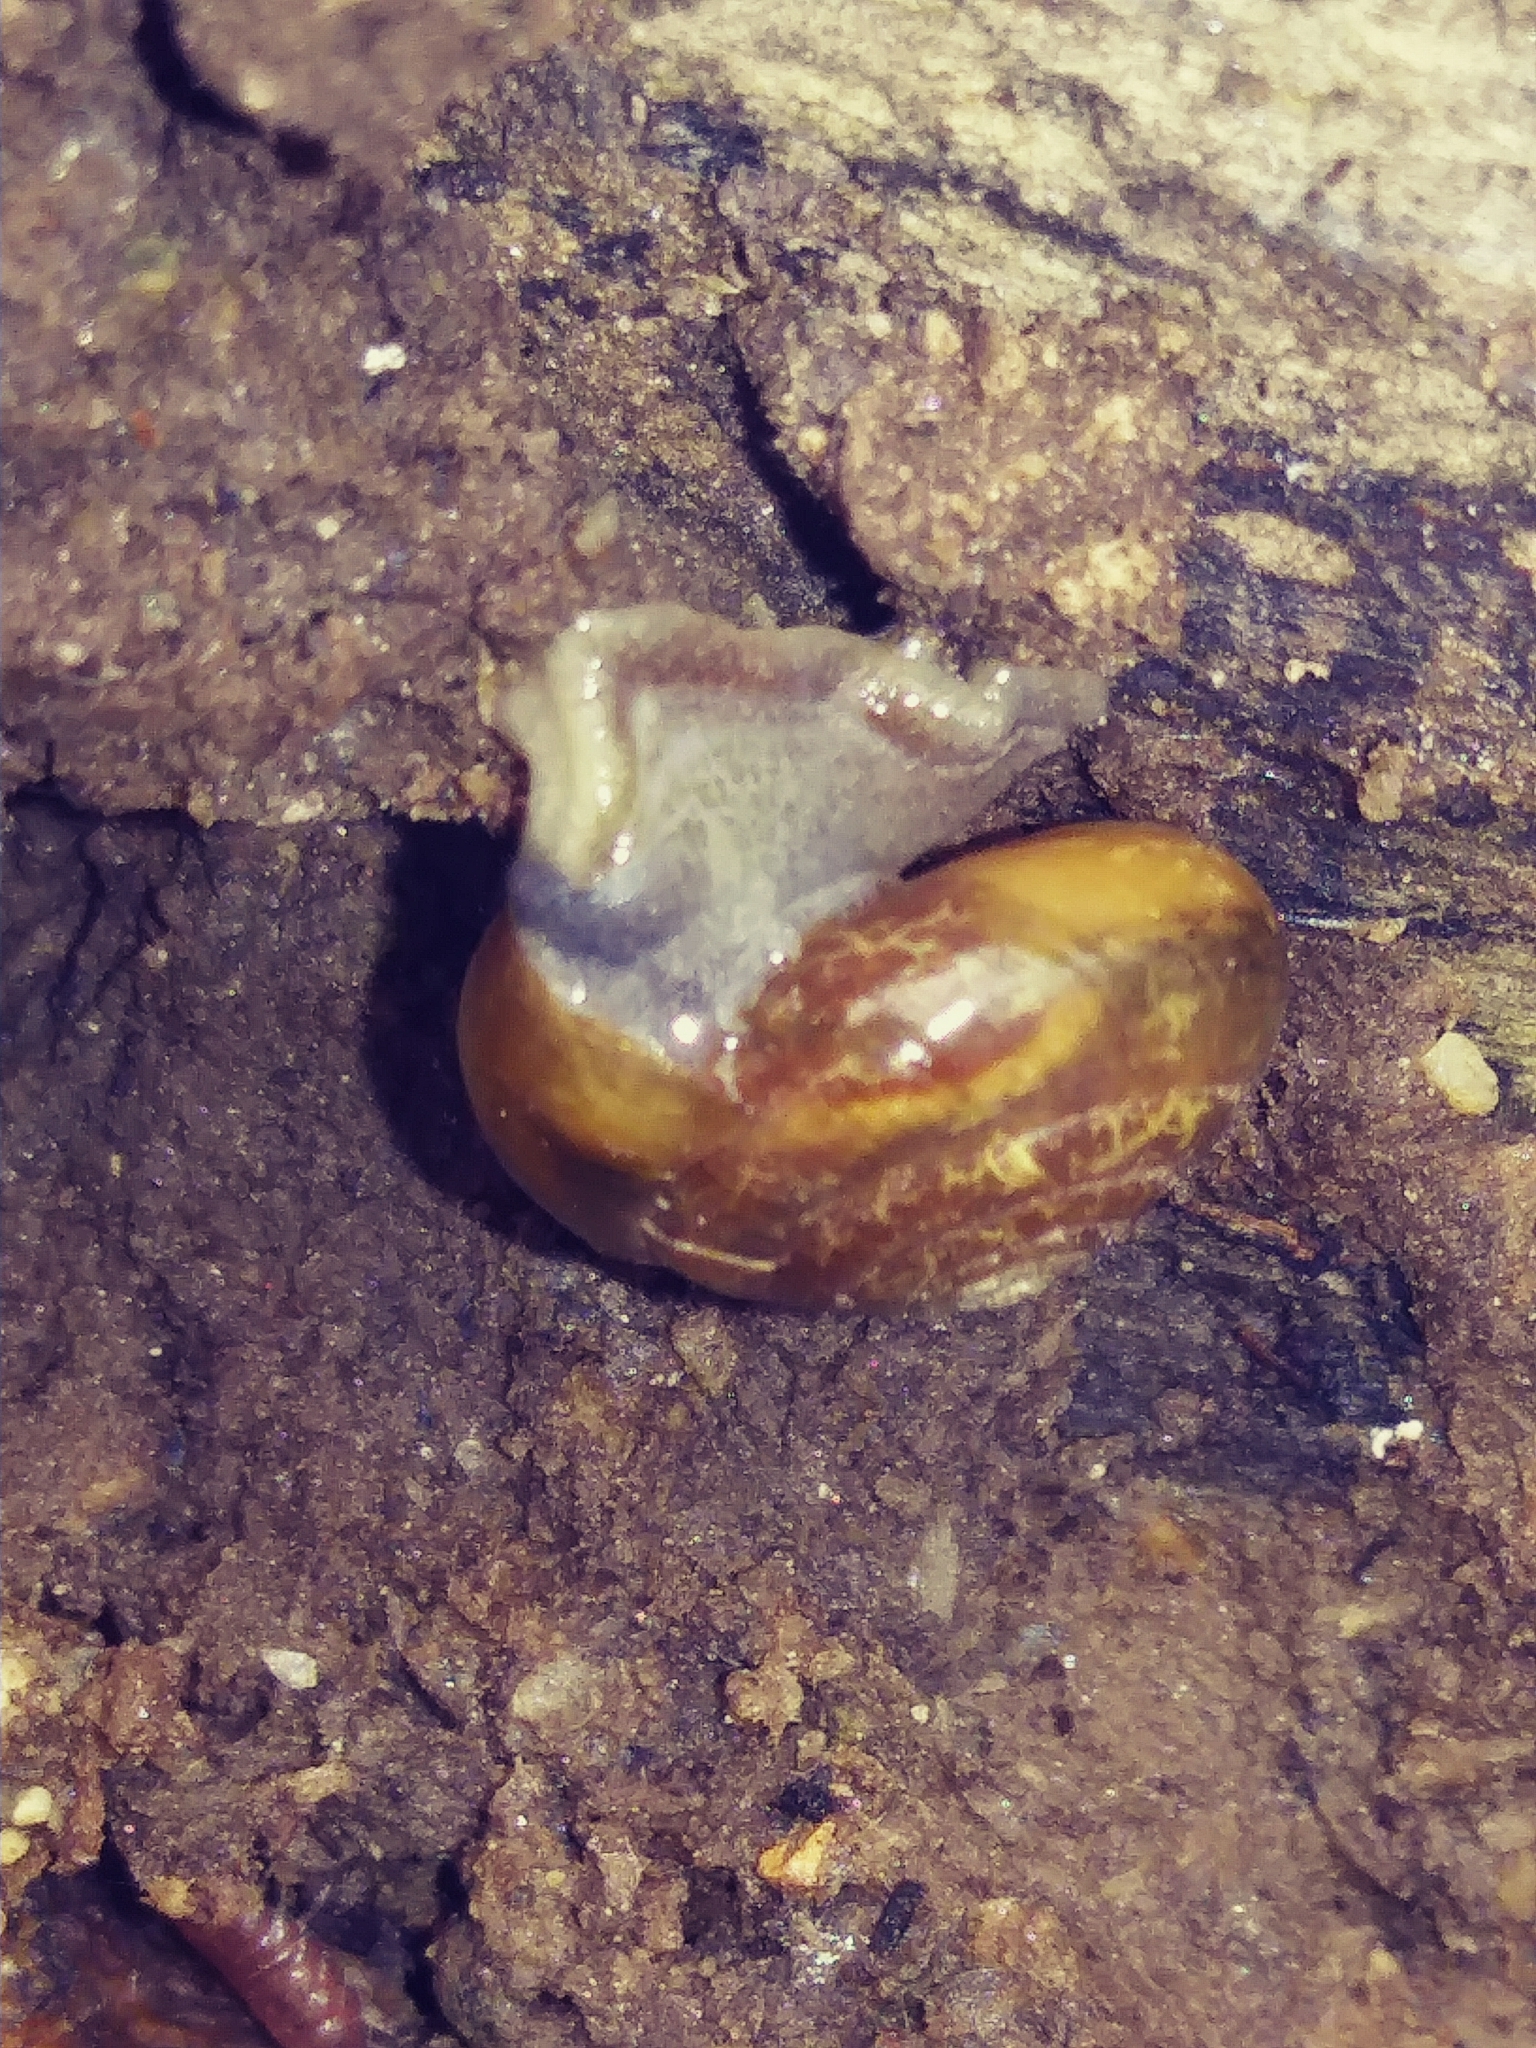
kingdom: Animalia
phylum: Mollusca
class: Gastropoda
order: Stylommatophora
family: Oxychilidae
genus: Oxychilus
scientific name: Oxychilus draparnaudi
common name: Draparnaud's glass snail
